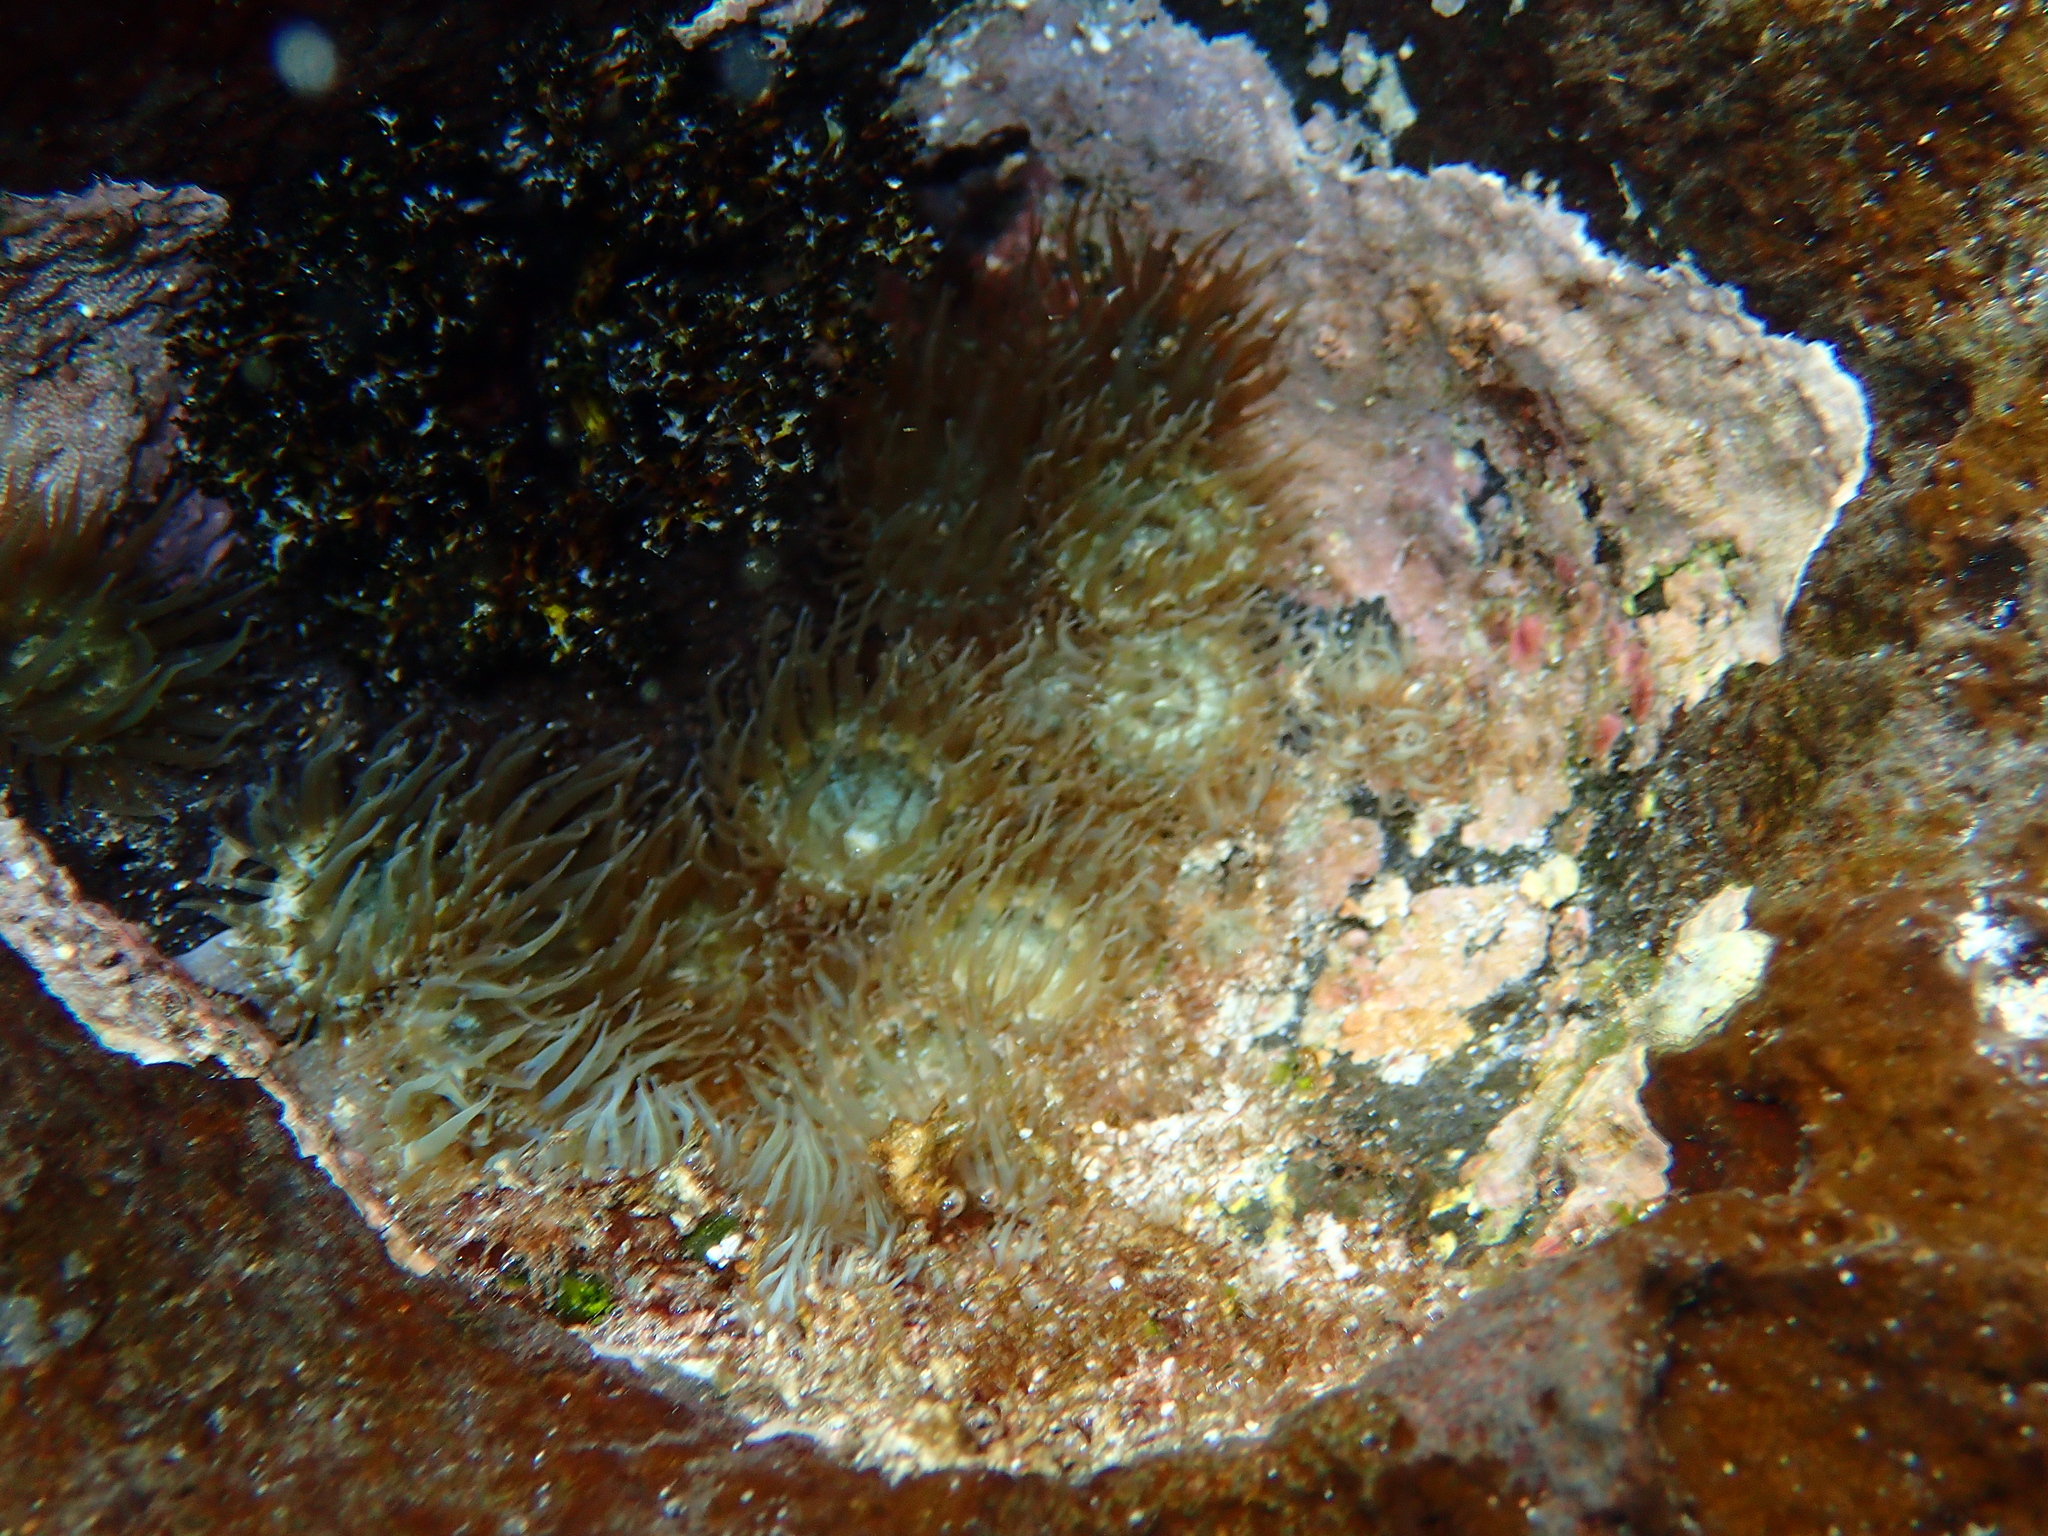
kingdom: Animalia
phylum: Cnidaria
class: Anthozoa
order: Actiniaria
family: Aiptasiidae
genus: Exaiptasia
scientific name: Exaiptasia diaphana
